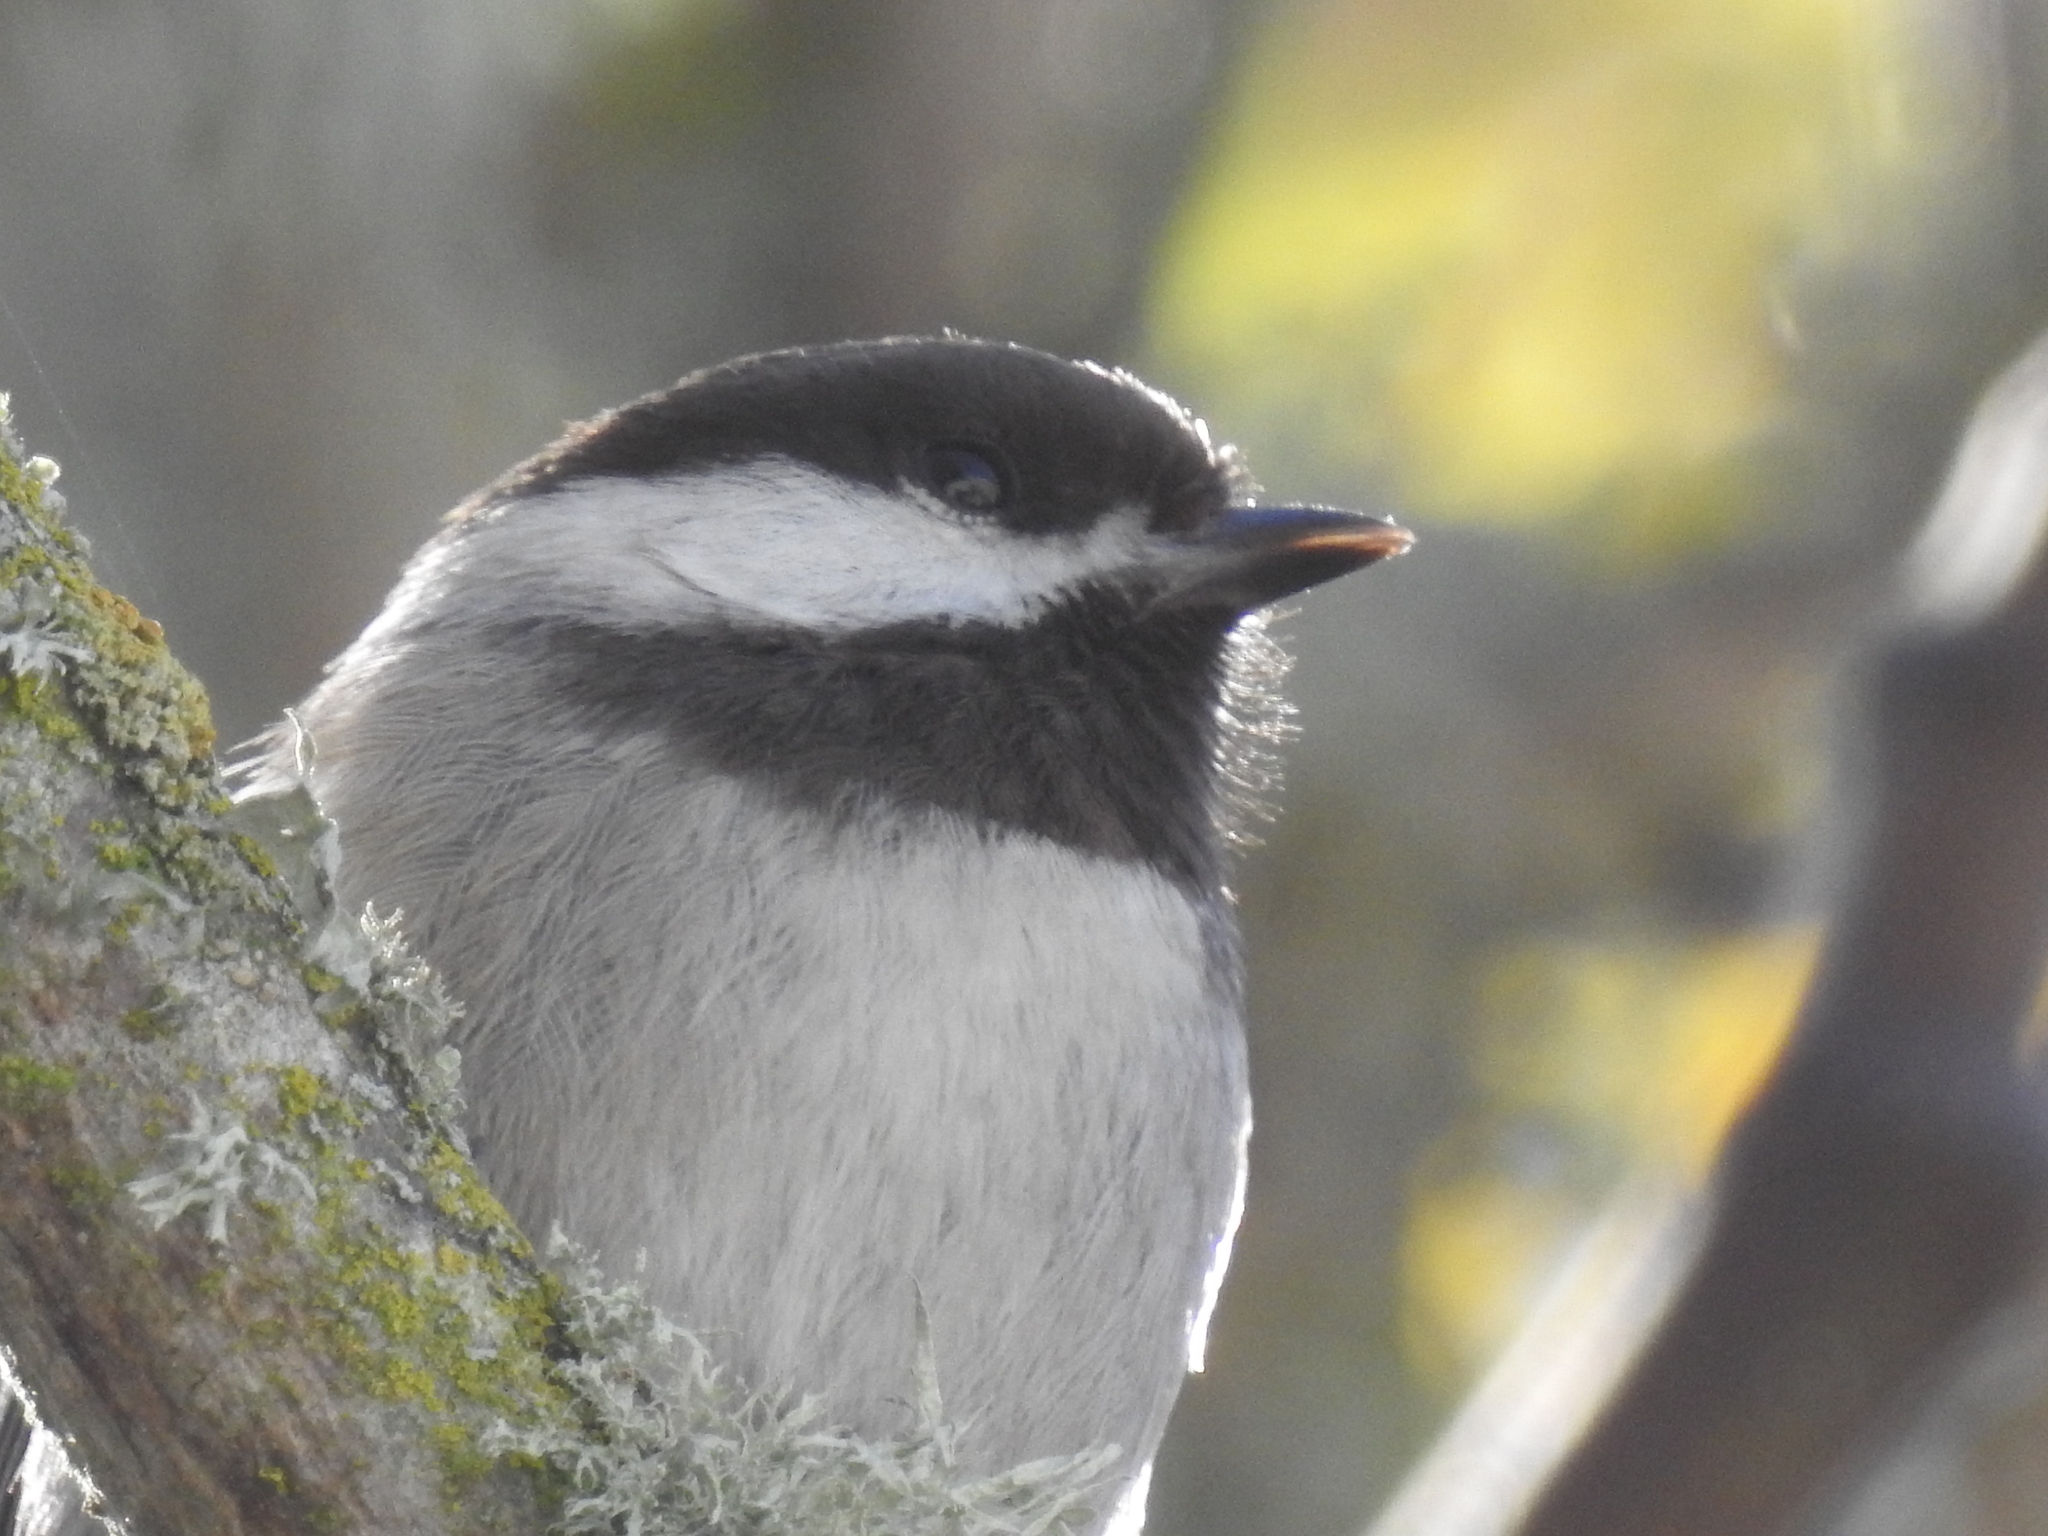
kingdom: Animalia
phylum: Chordata
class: Aves
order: Passeriformes
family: Paridae
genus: Poecile
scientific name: Poecile rufescens
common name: Chestnut-backed chickadee
